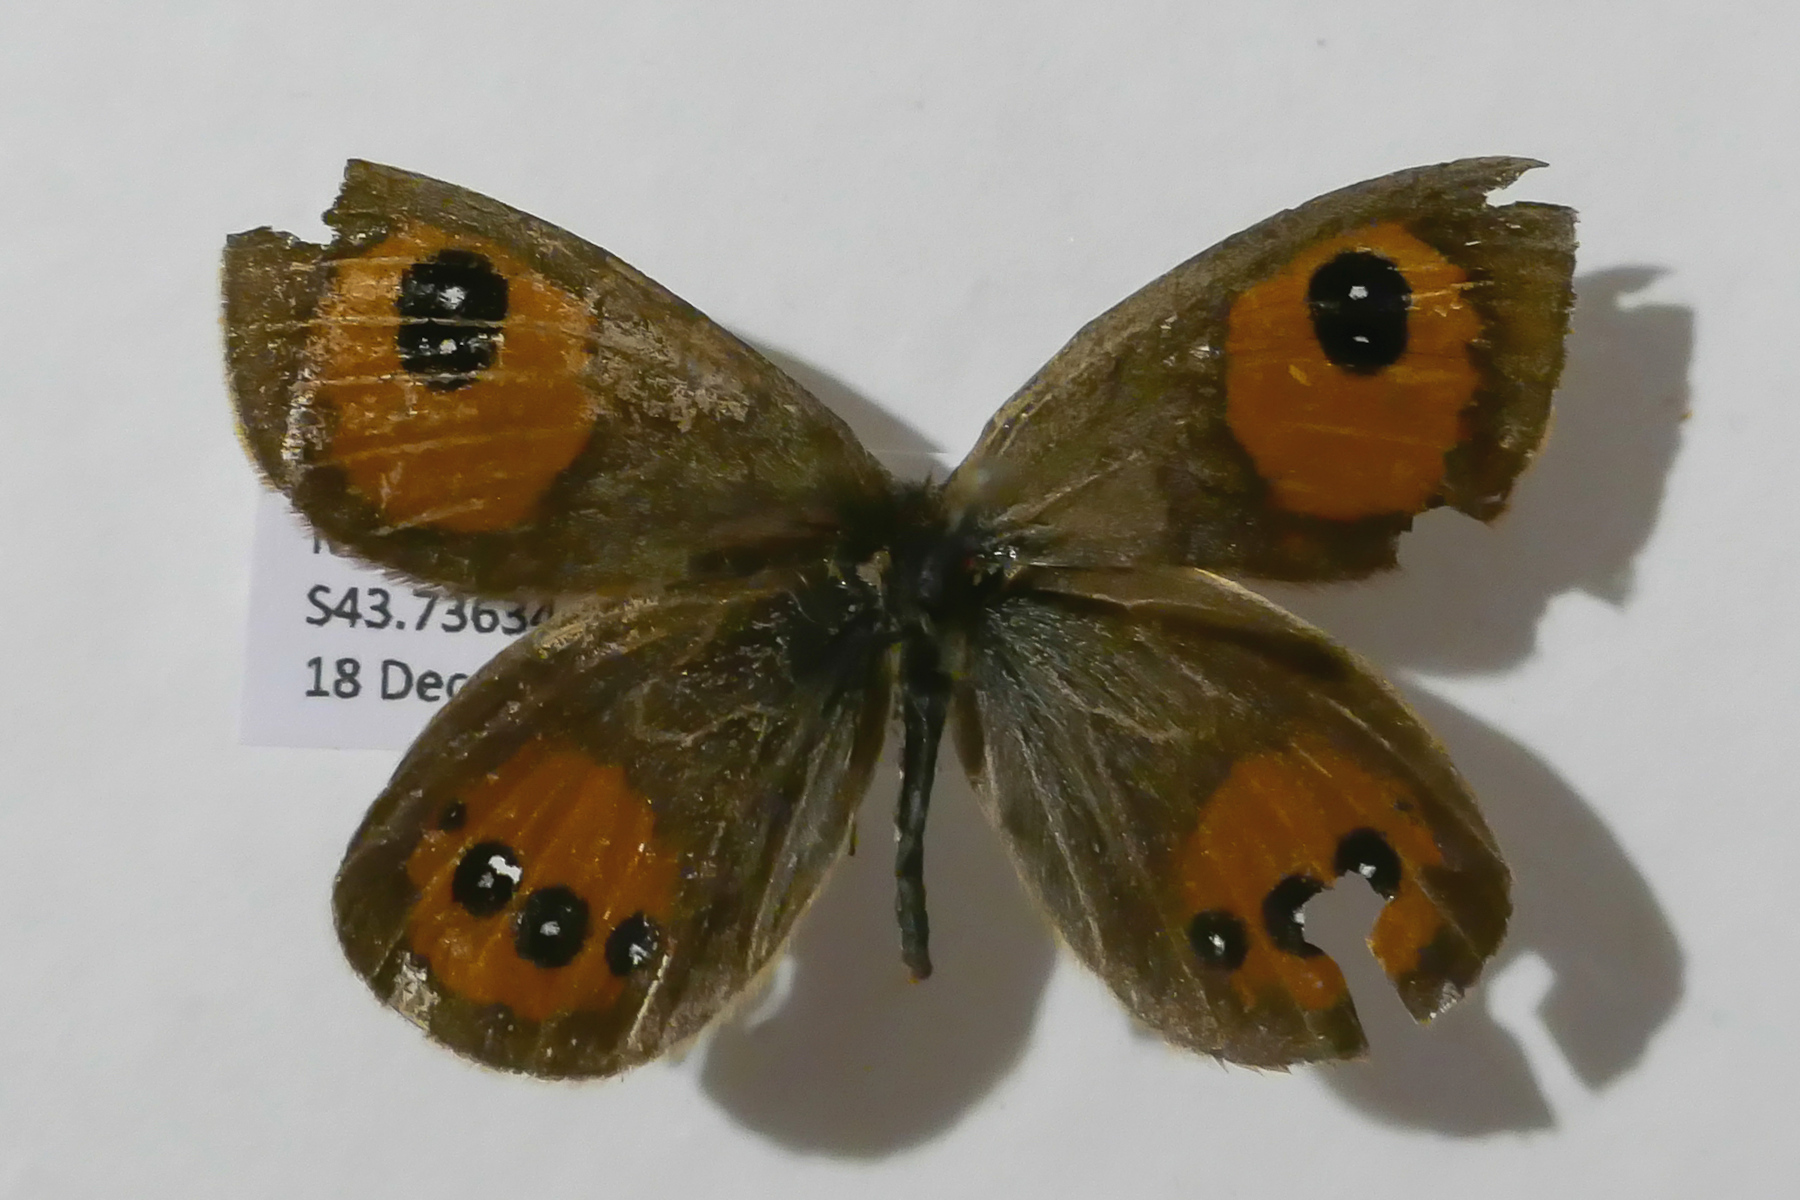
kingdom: Animalia
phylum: Arthropoda
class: Insecta
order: Lepidoptera
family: Nymphalidae
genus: Argyrophenga
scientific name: Argyrophenga antipodum
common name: Common tussock butterfly
